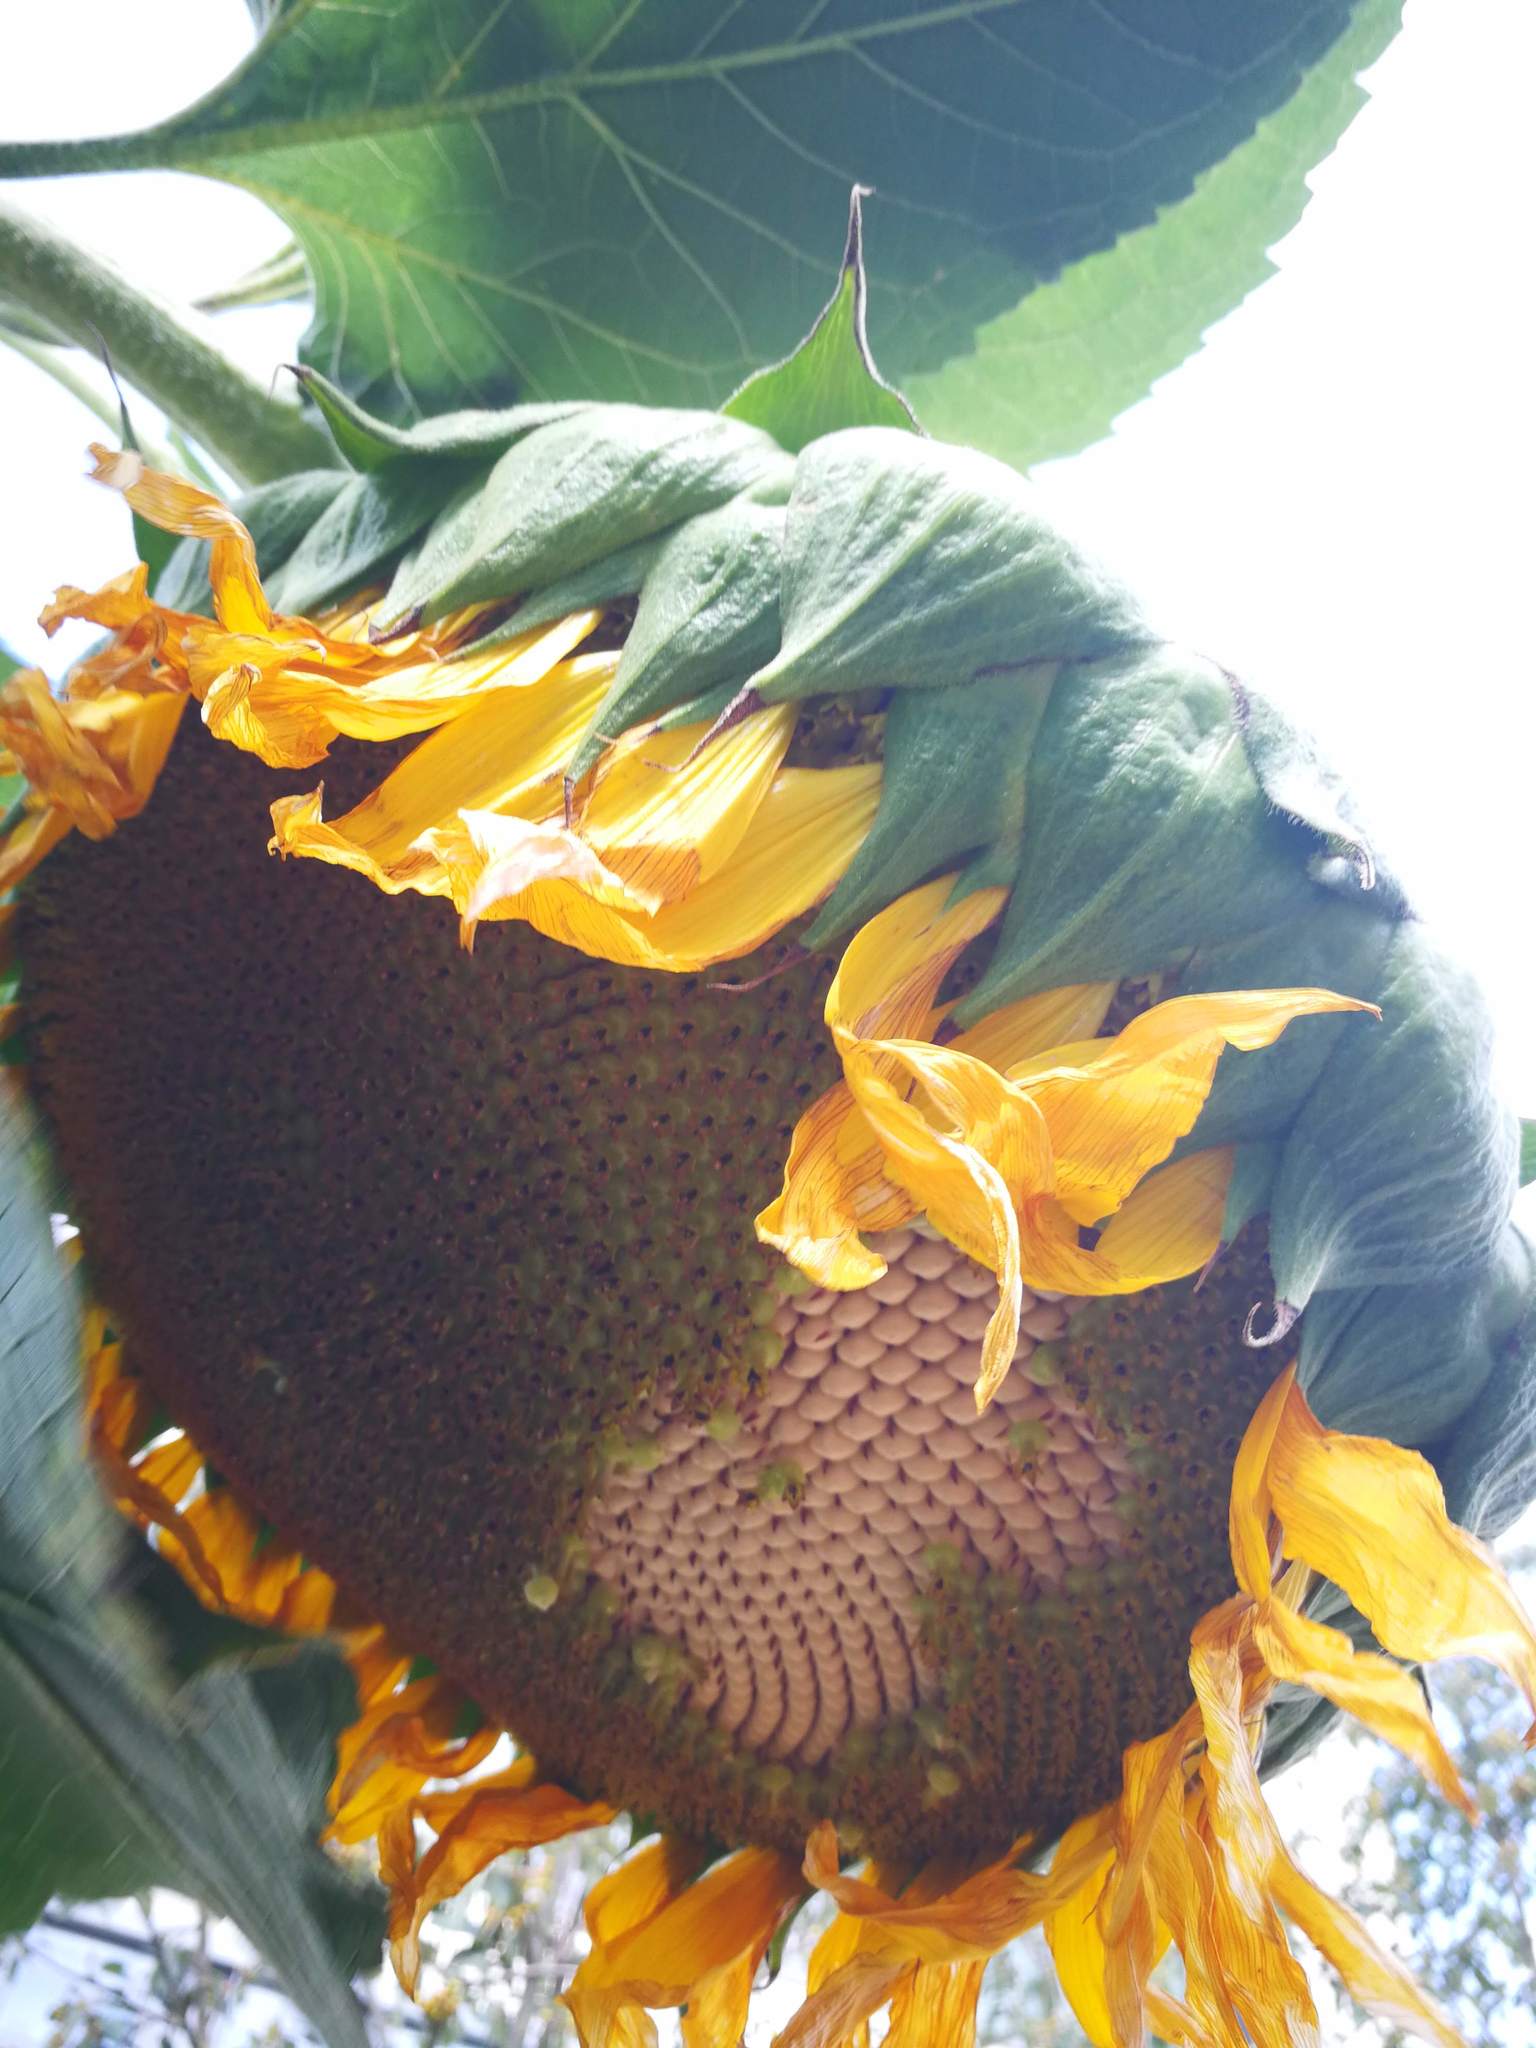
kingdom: Plantae
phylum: Tracheophyta
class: Magnoliopsida
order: Asterales
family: Asteraceae
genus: Helianthus
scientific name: Helianthus annuus
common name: Sunflower
